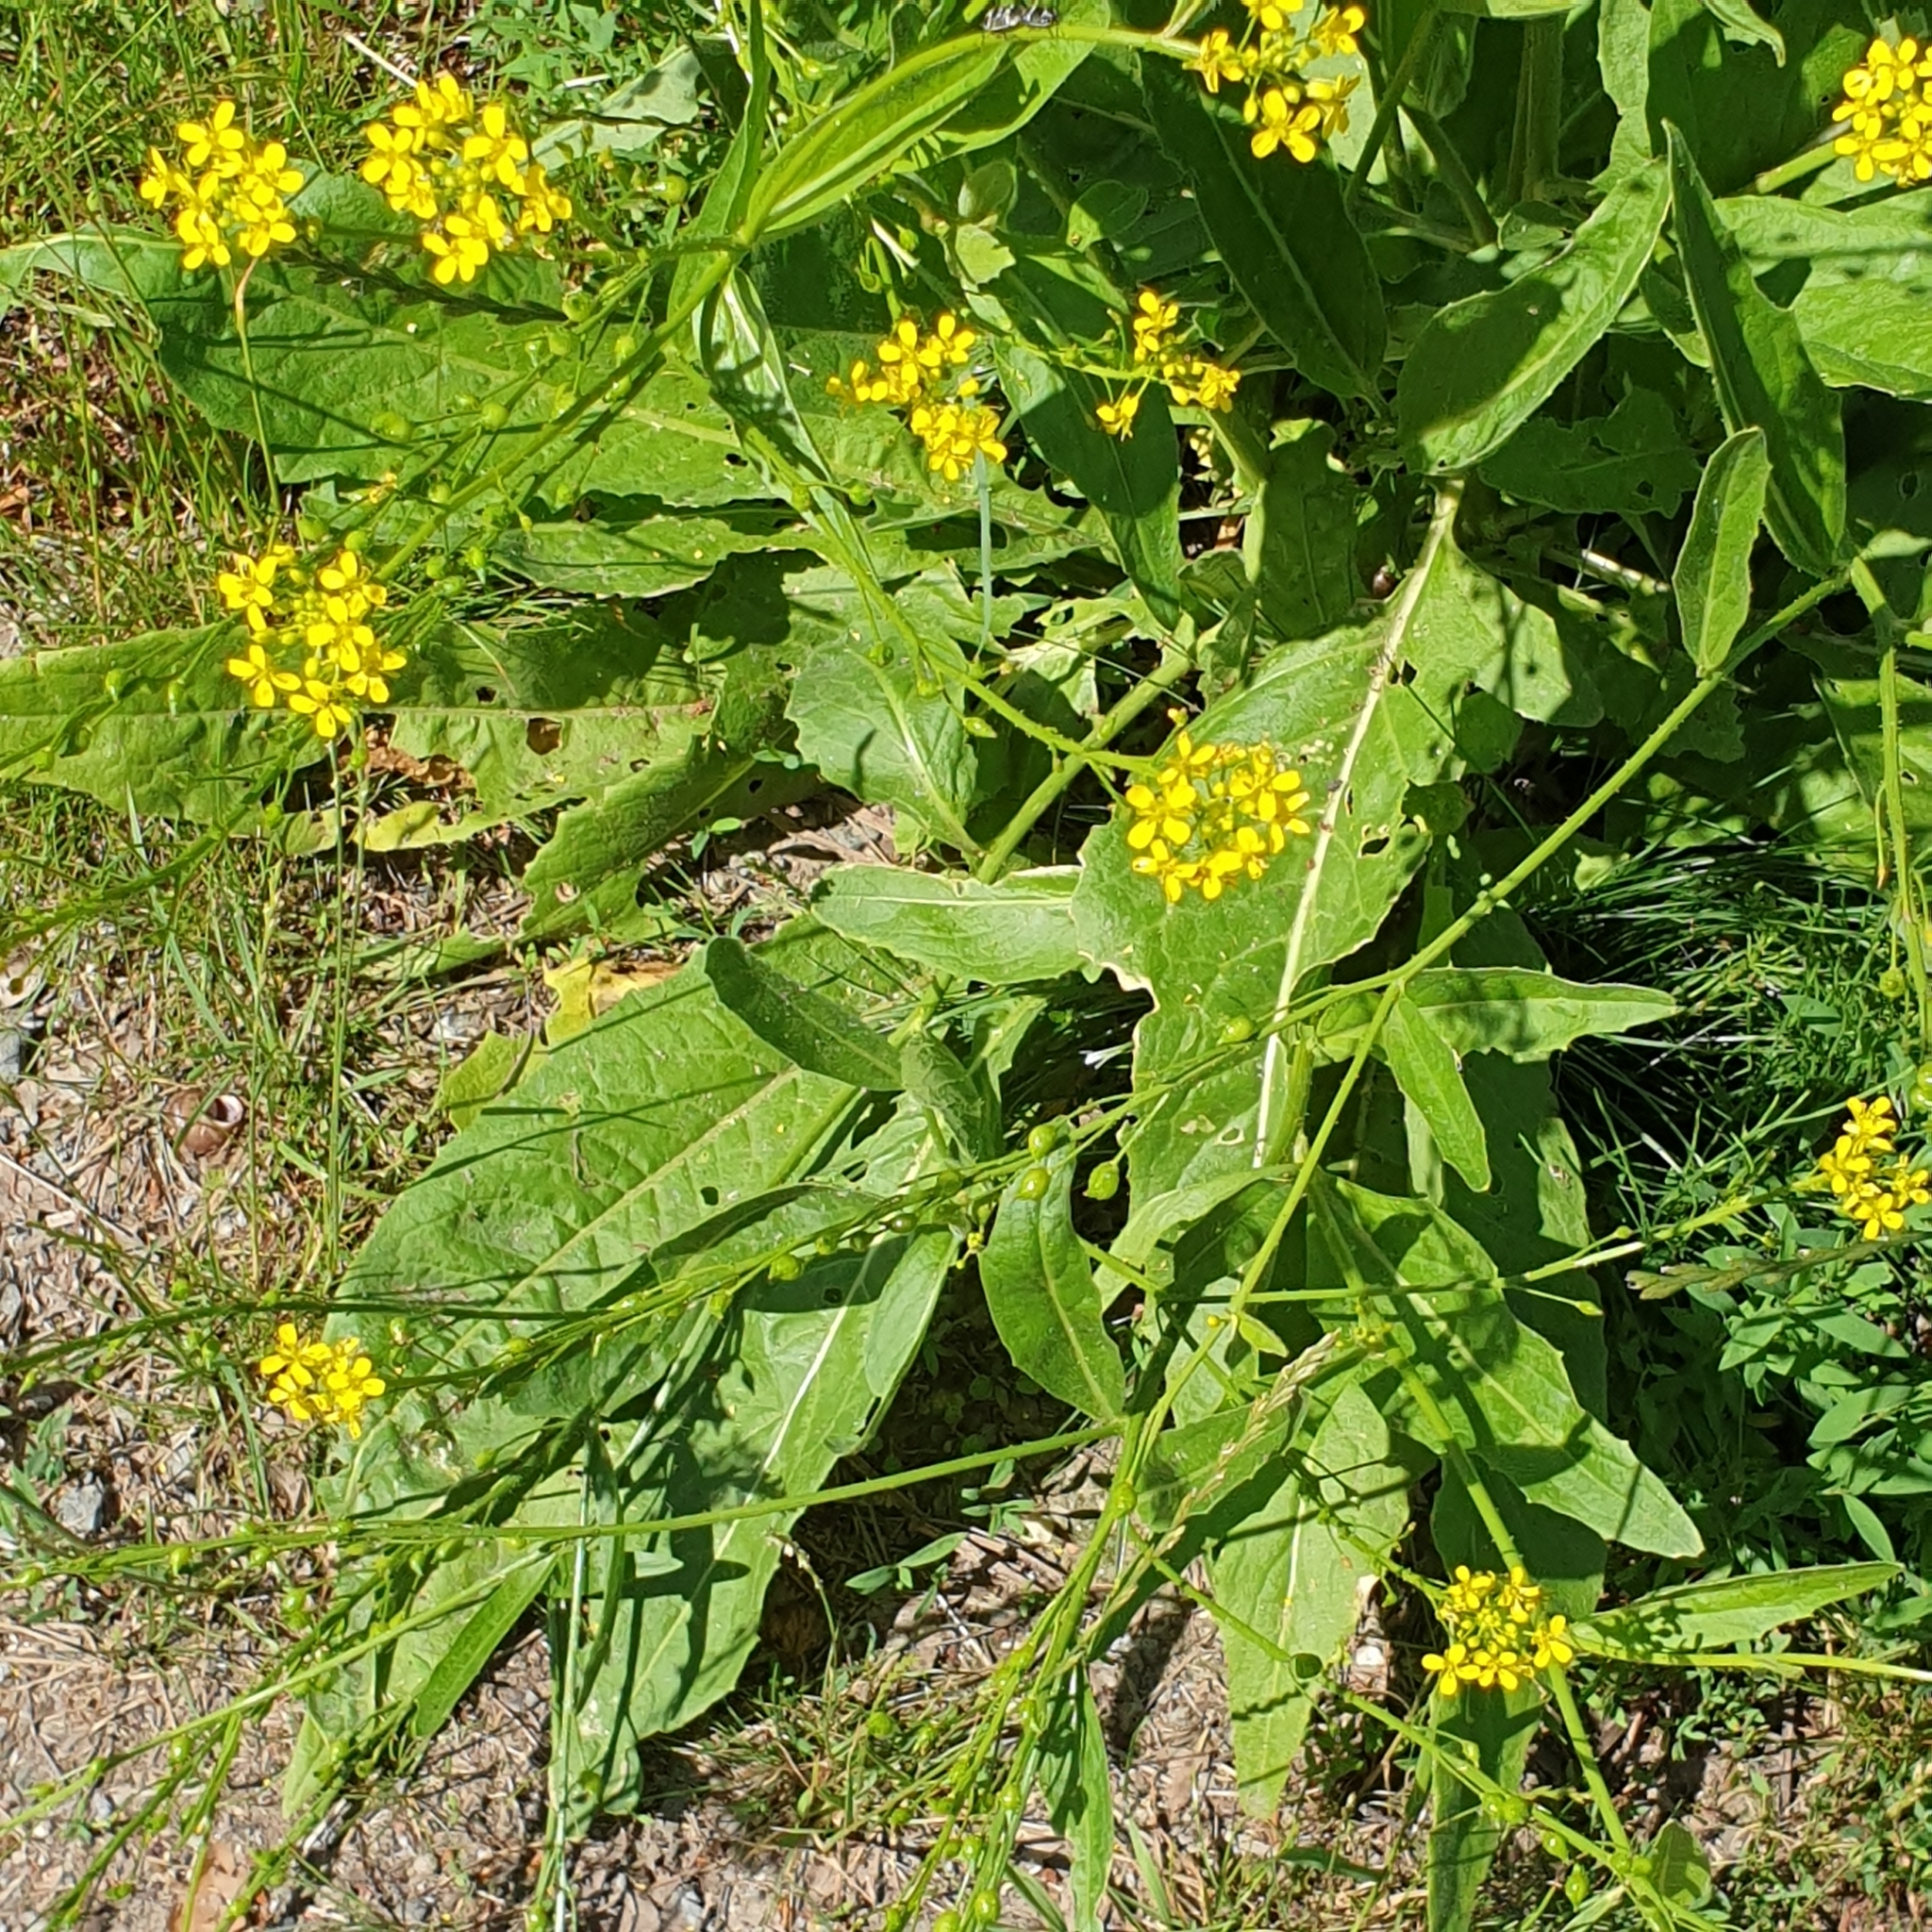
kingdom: Plantae
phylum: Tracheophyta
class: Magnoliopsida
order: Brassicales
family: Brassicaceae
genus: Bunias
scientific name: Bunias orientalis
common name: Warty-cabbage
